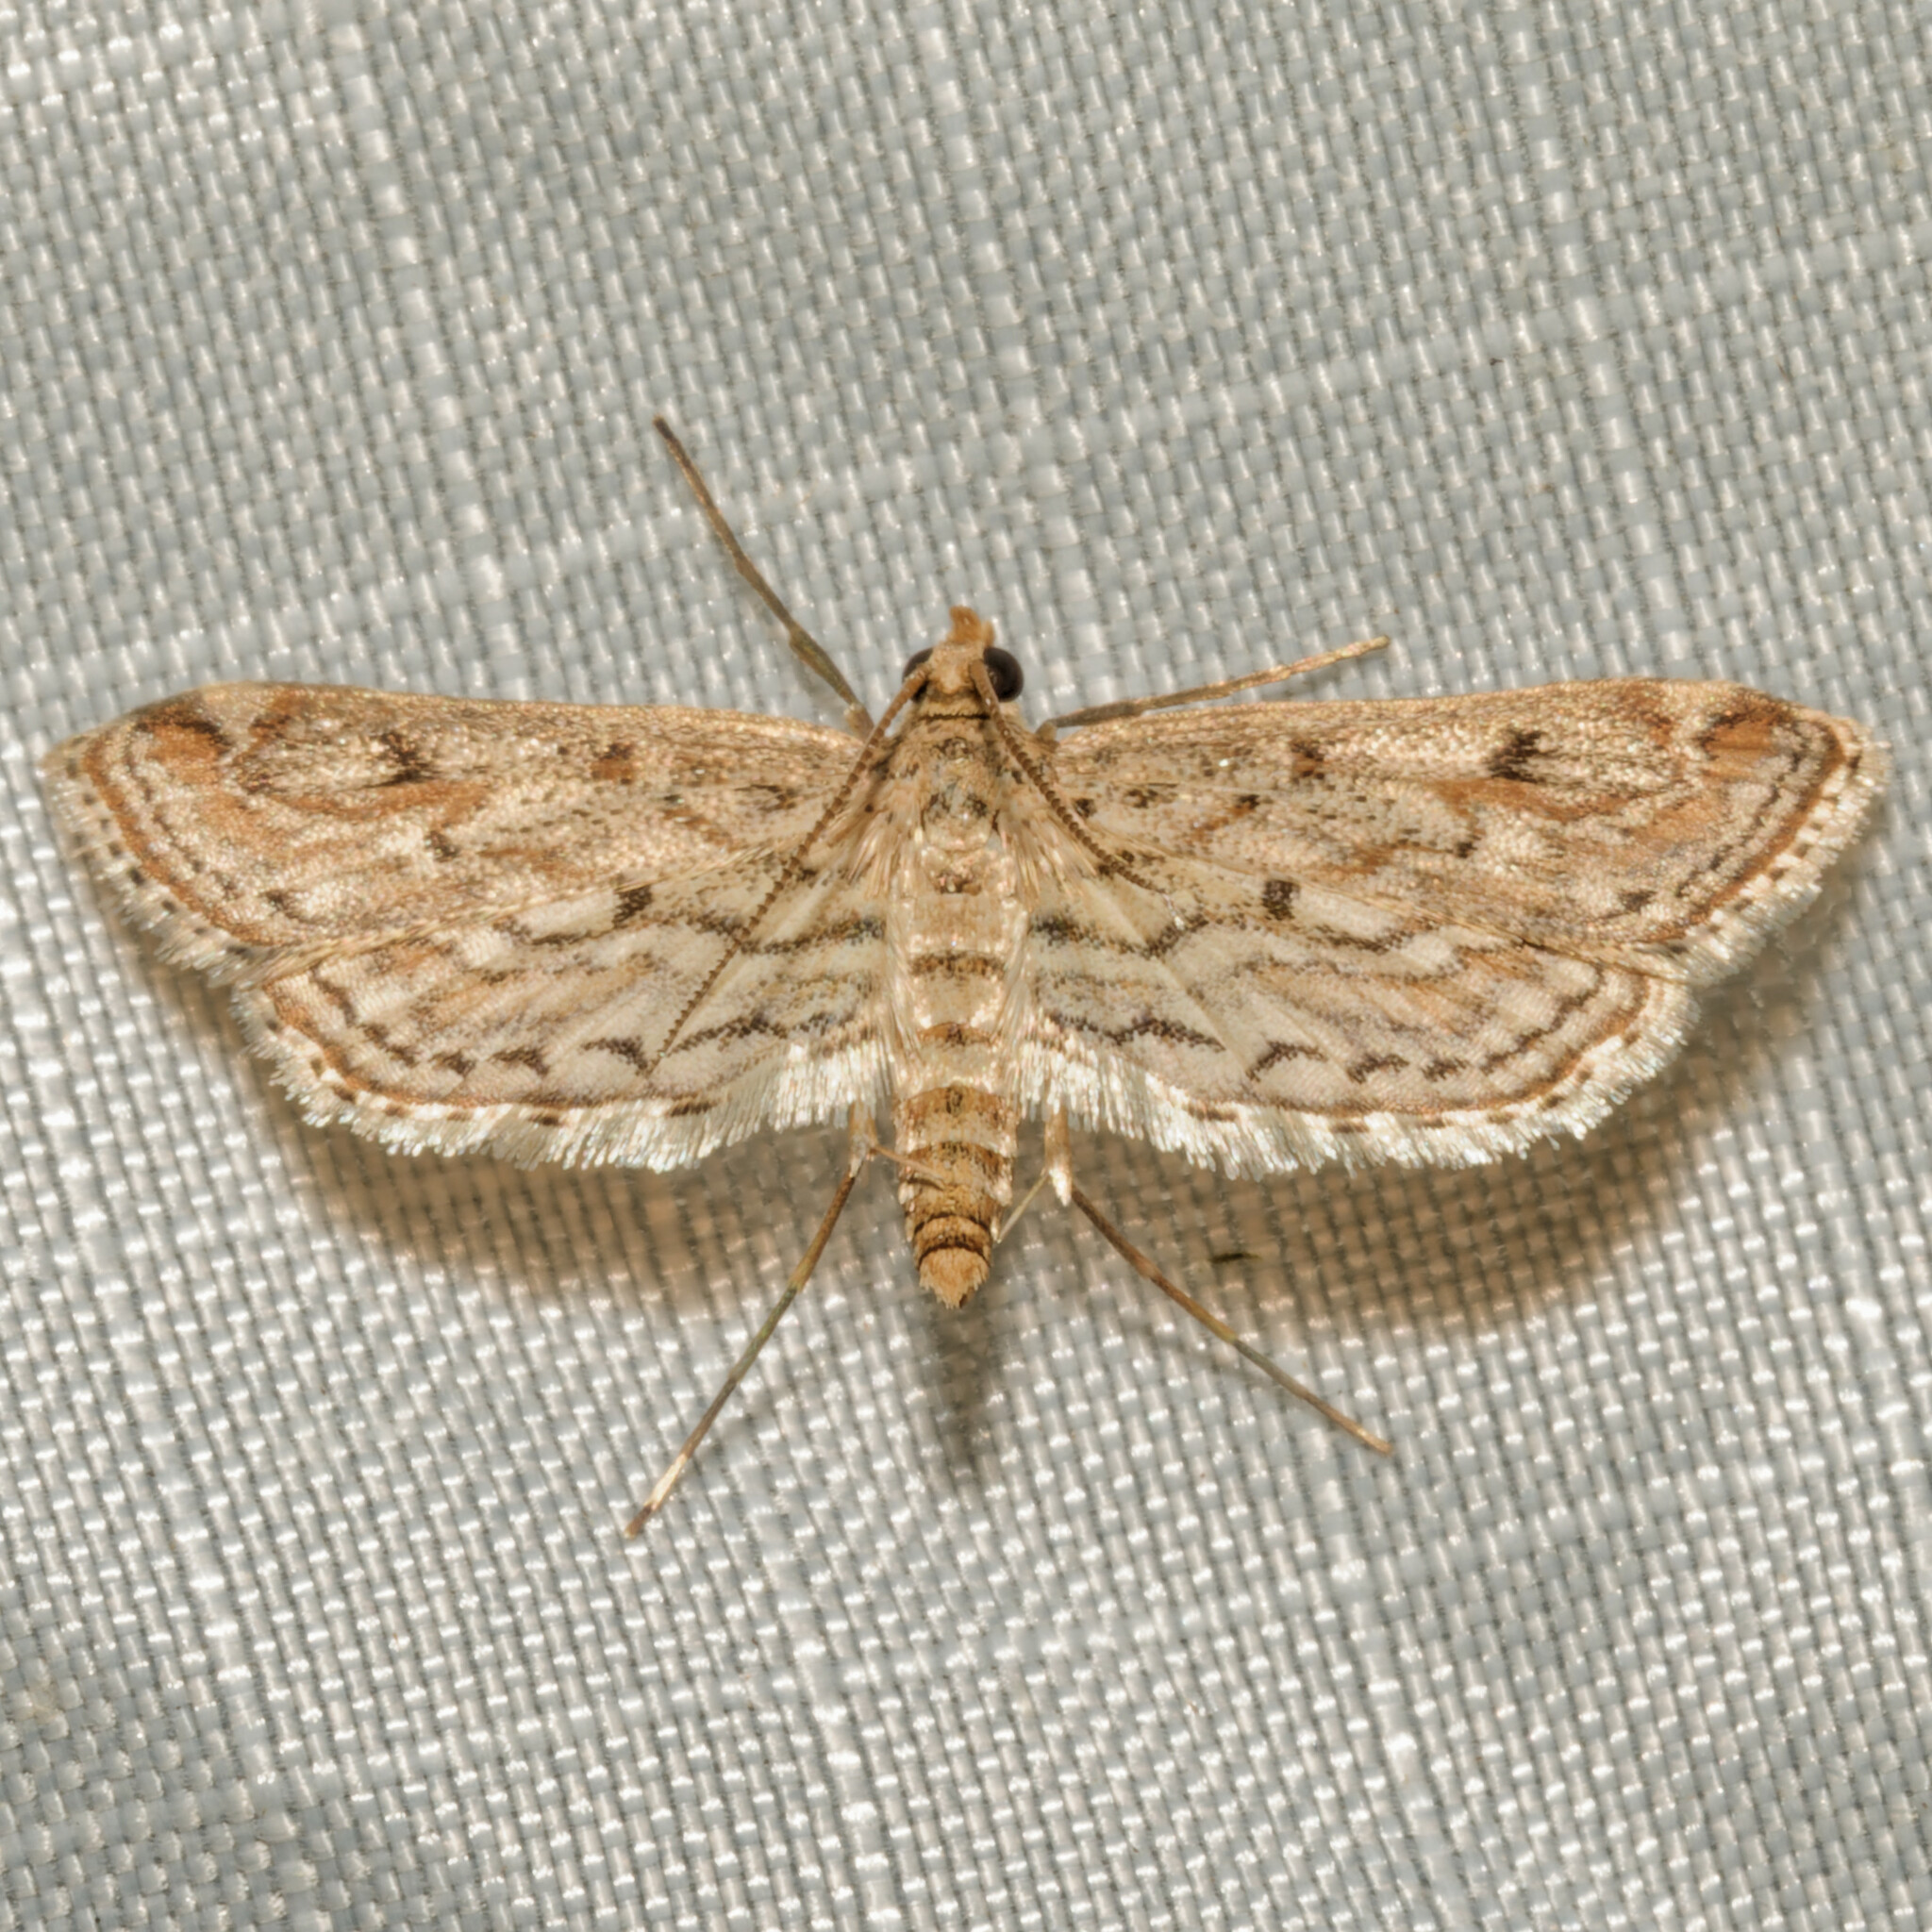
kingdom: Animalia
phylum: Arthropoda
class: Insecta
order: Lepidoptera
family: Crambidae
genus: Parapoynx
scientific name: Parapoynx allionealis
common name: Bladderwort casemaker
